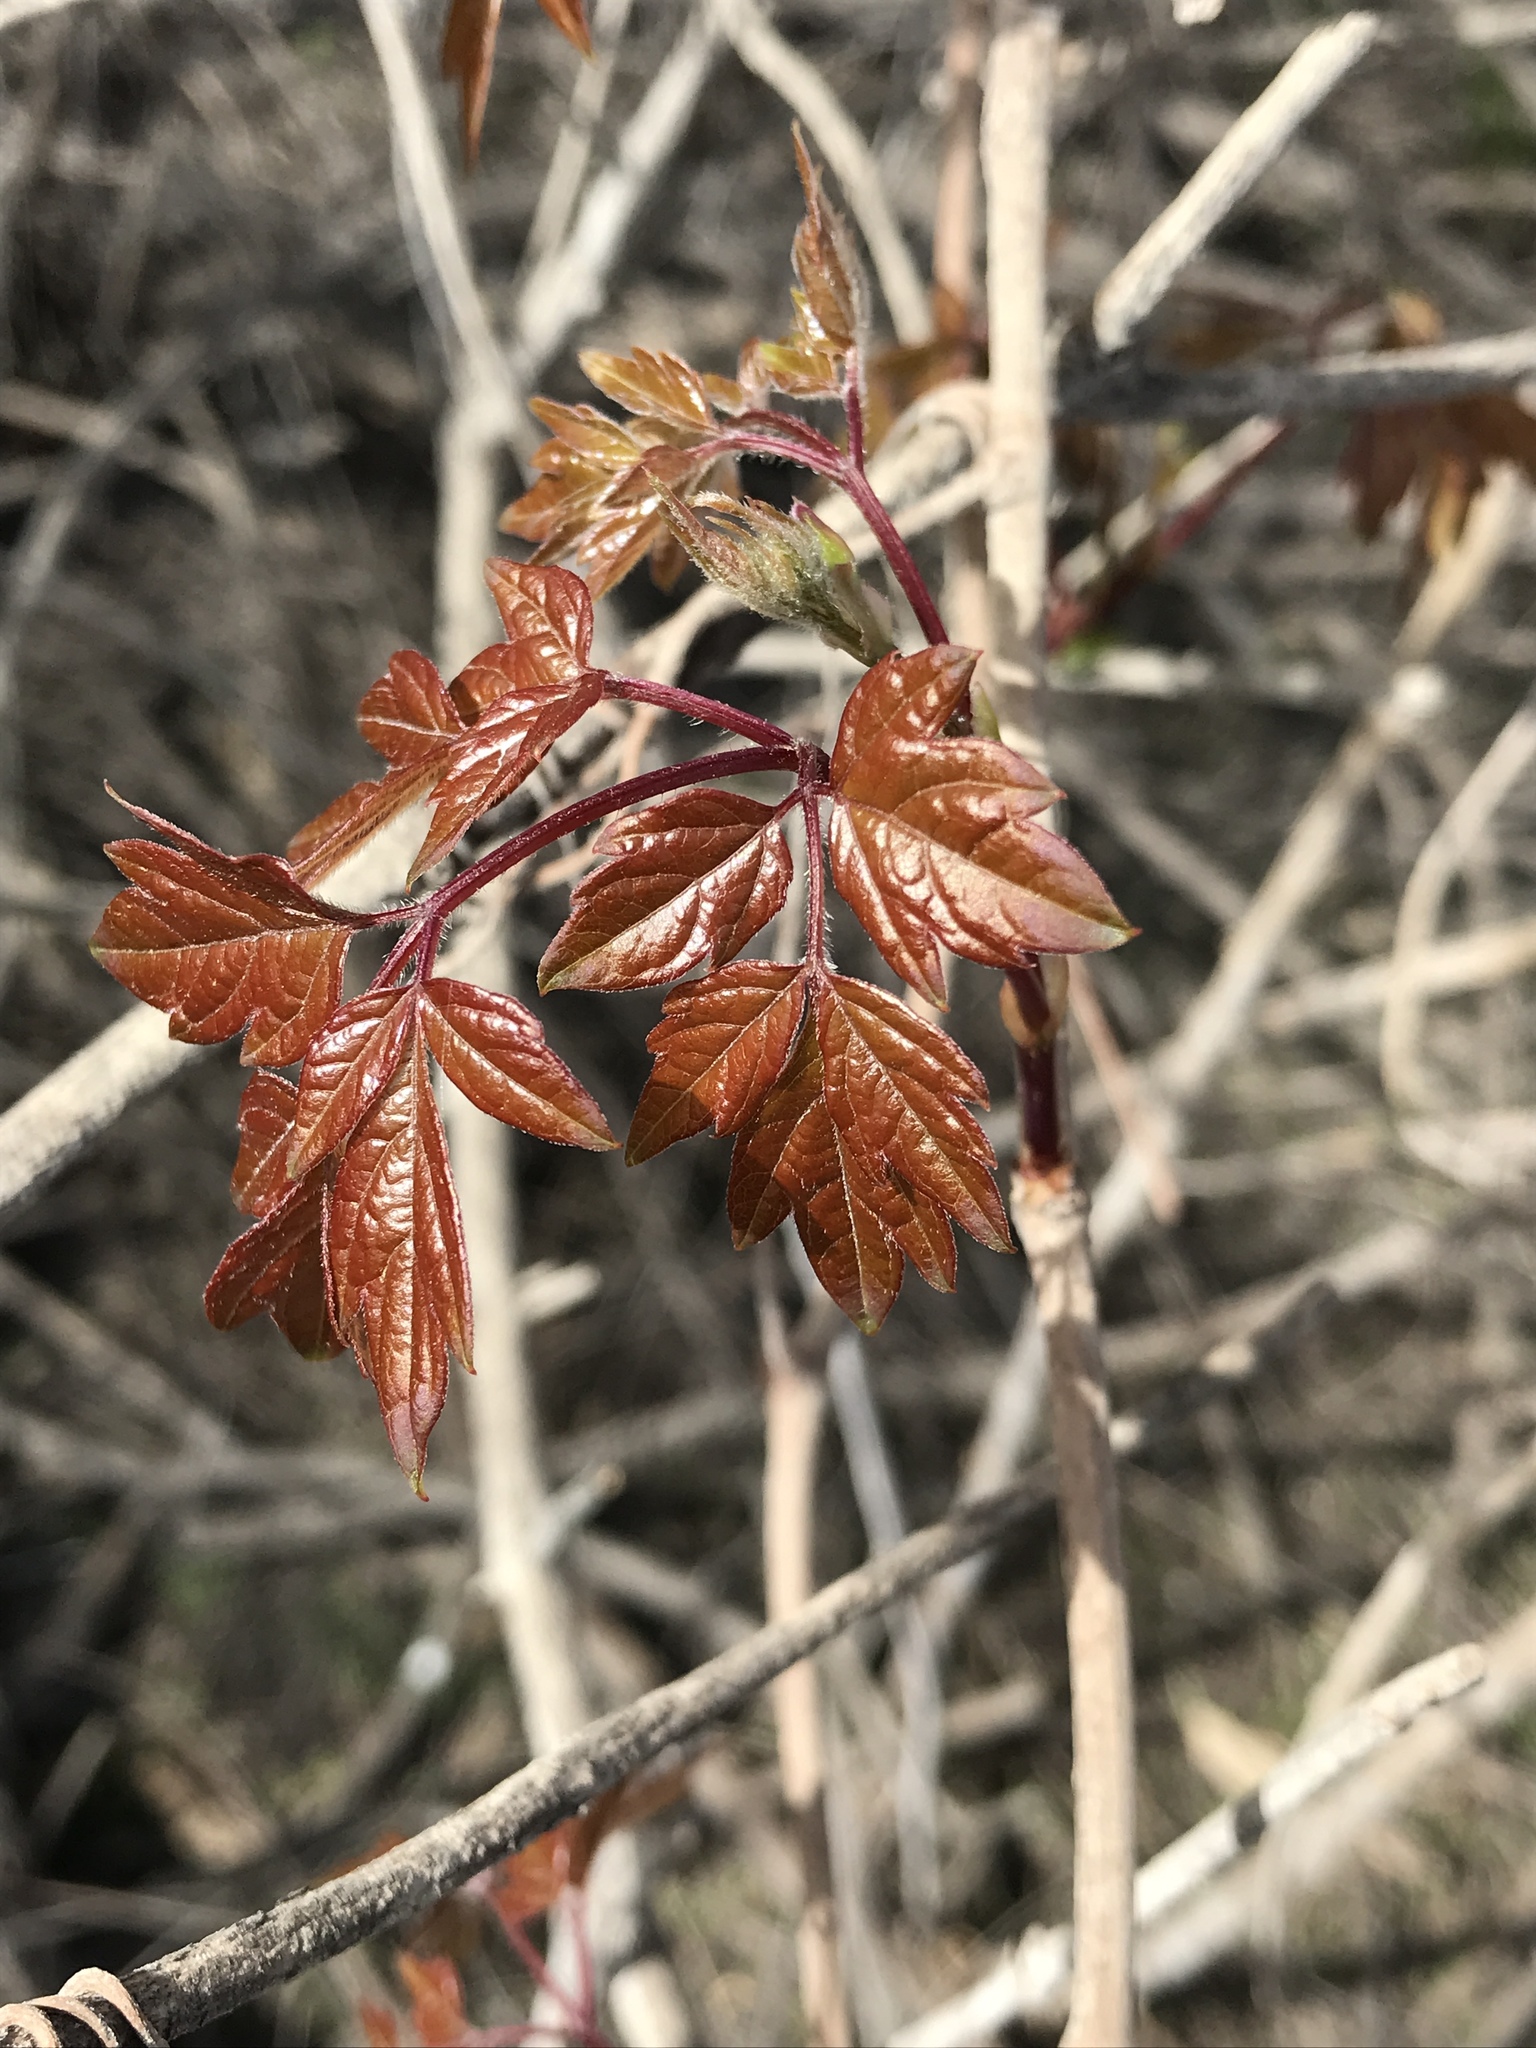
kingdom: Plantae
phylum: Tracheophyta
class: Magnoliopsida
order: Vitales
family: Vitaceae
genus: Nekemias
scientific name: Nekemias arborea
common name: Peppervine
